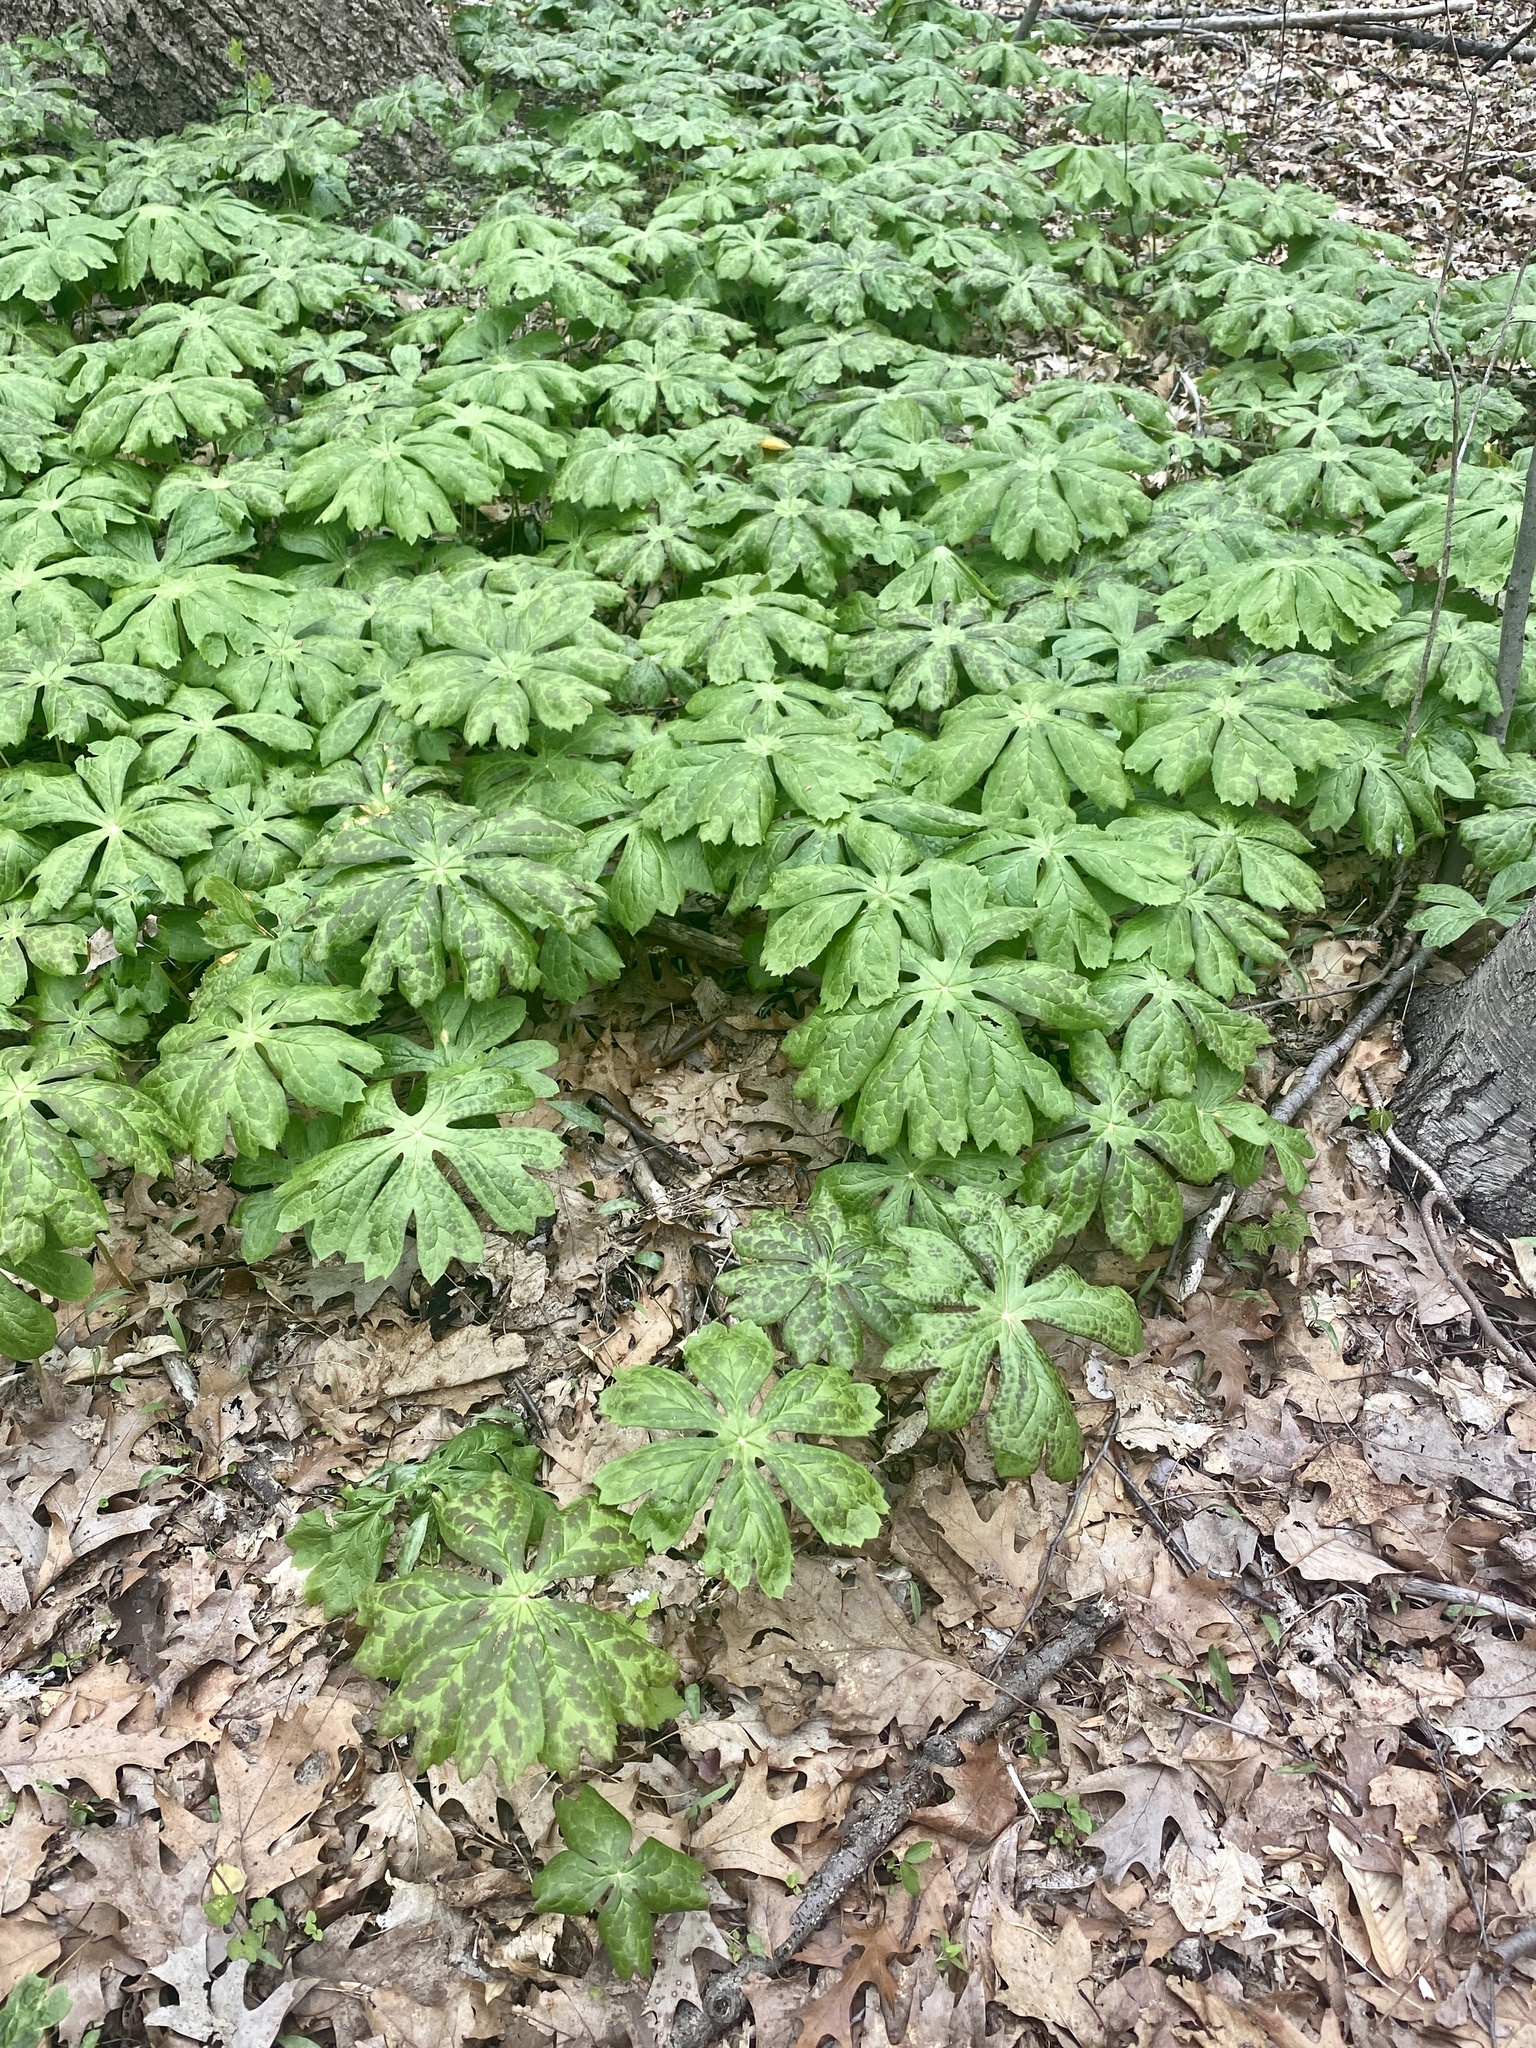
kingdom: Plantae
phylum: Tracheophyta
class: Magnoliopsida
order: Ranunculales
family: Berberidaceae
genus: Podophyllum
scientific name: Podophyllum peltatum
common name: Wild mandrake
